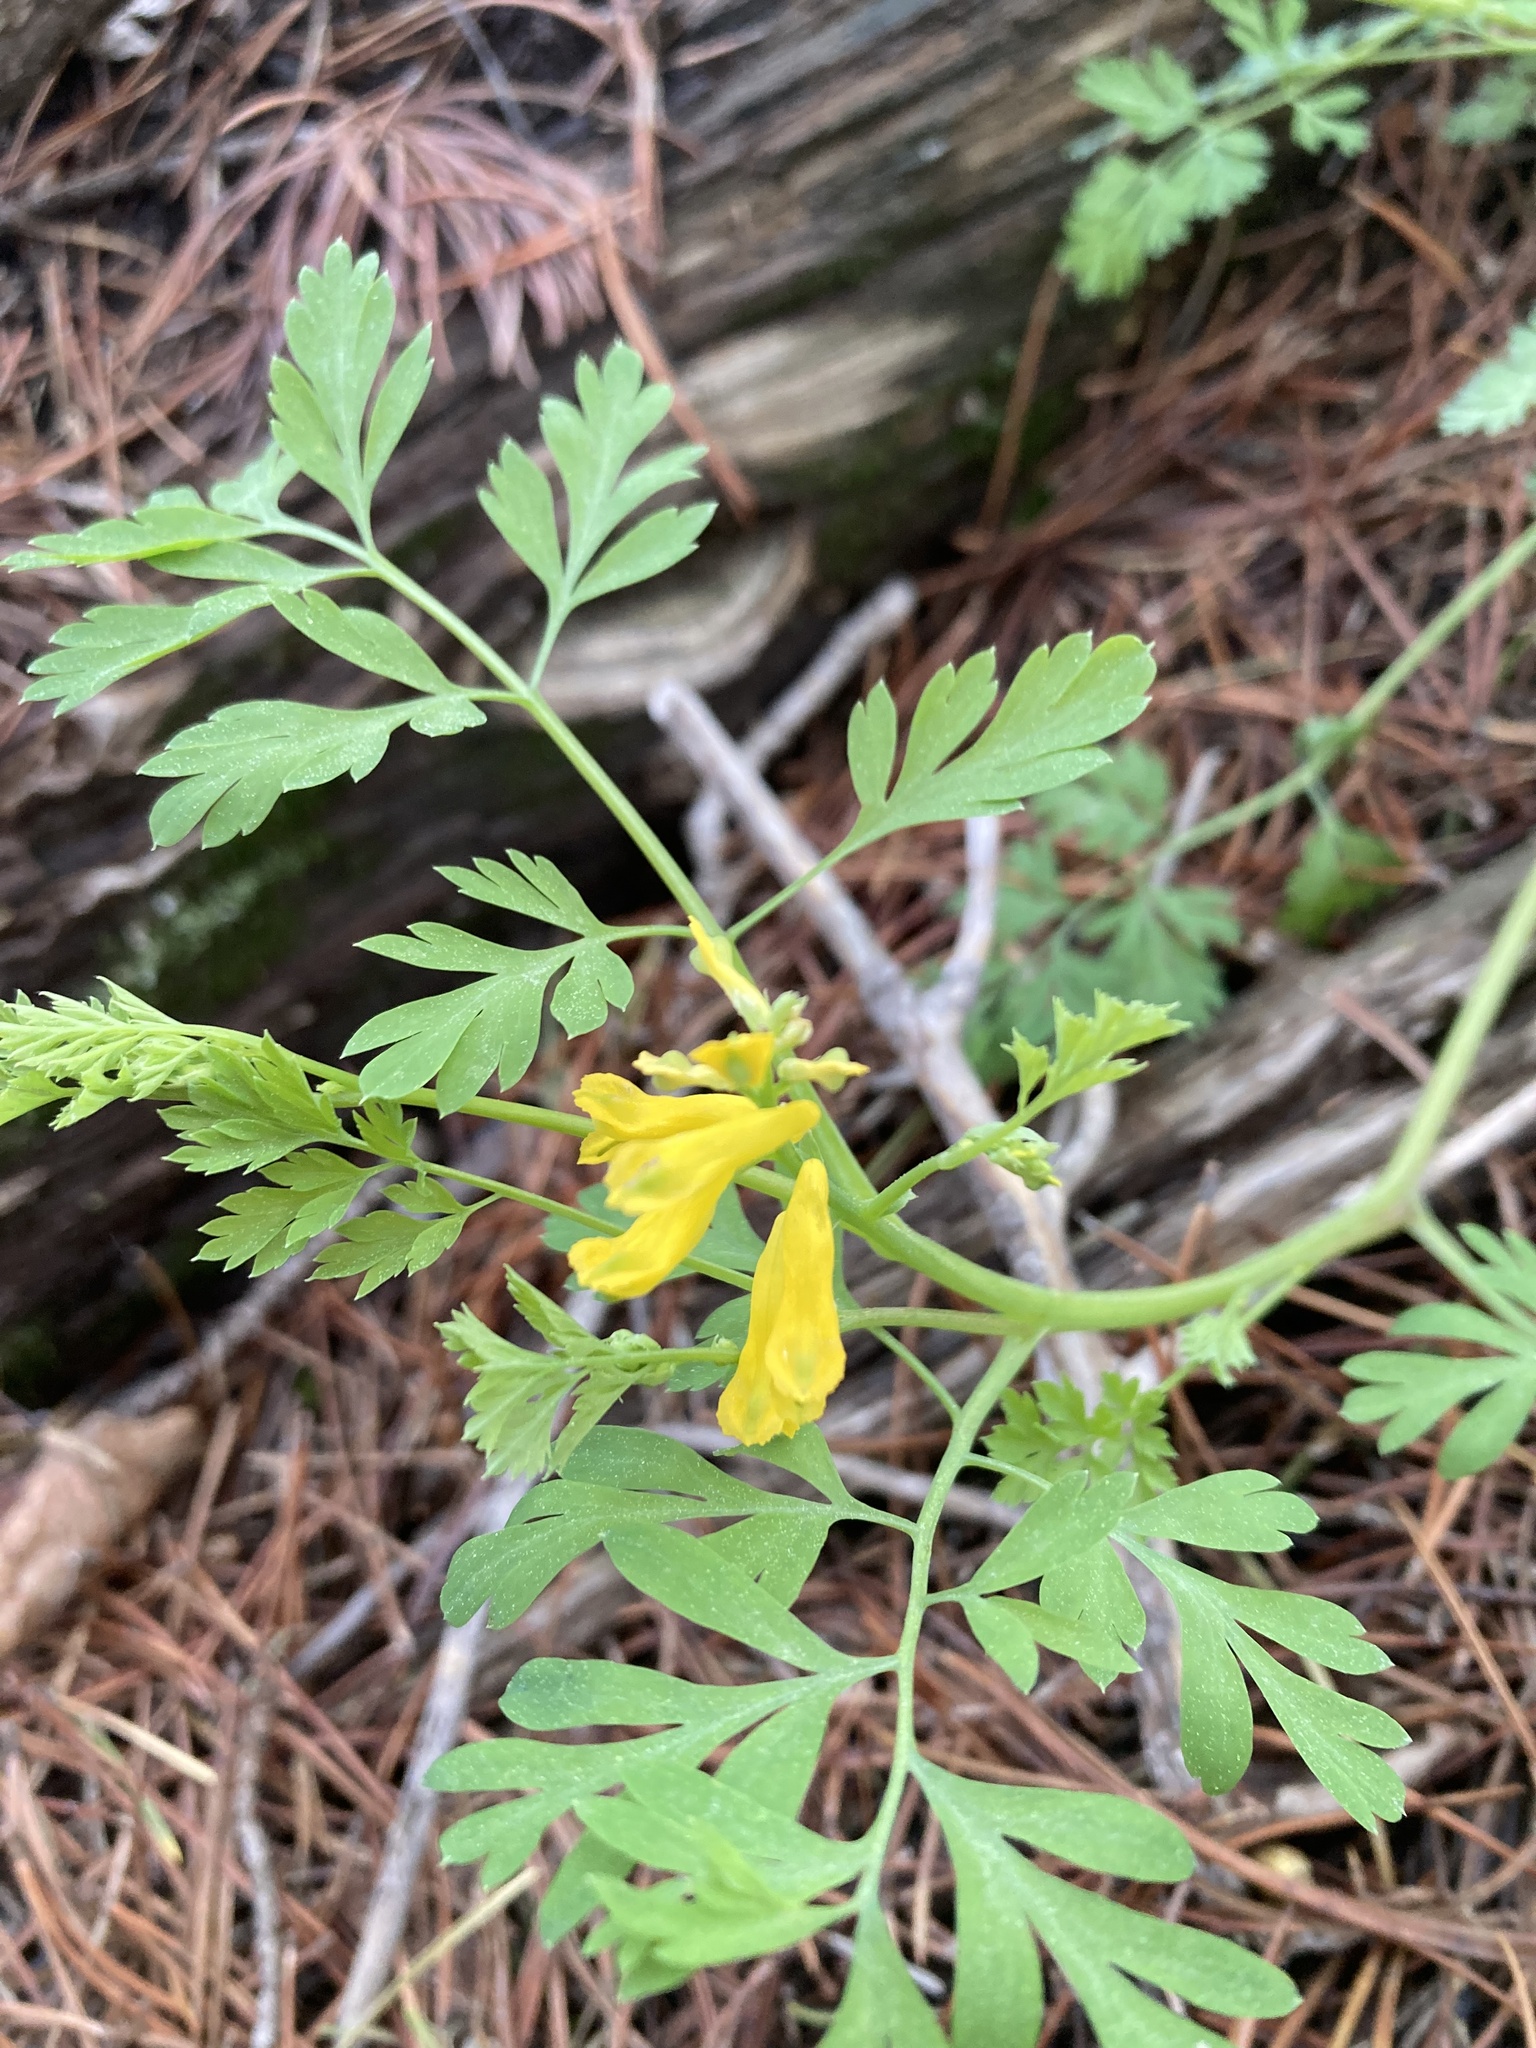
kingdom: Plantae
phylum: Tracheophyta
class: Magnoliopsida
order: Ranunculales
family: Papaveraceae
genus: Corydalis
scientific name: Corydalis aurea
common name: Golden corydalis
